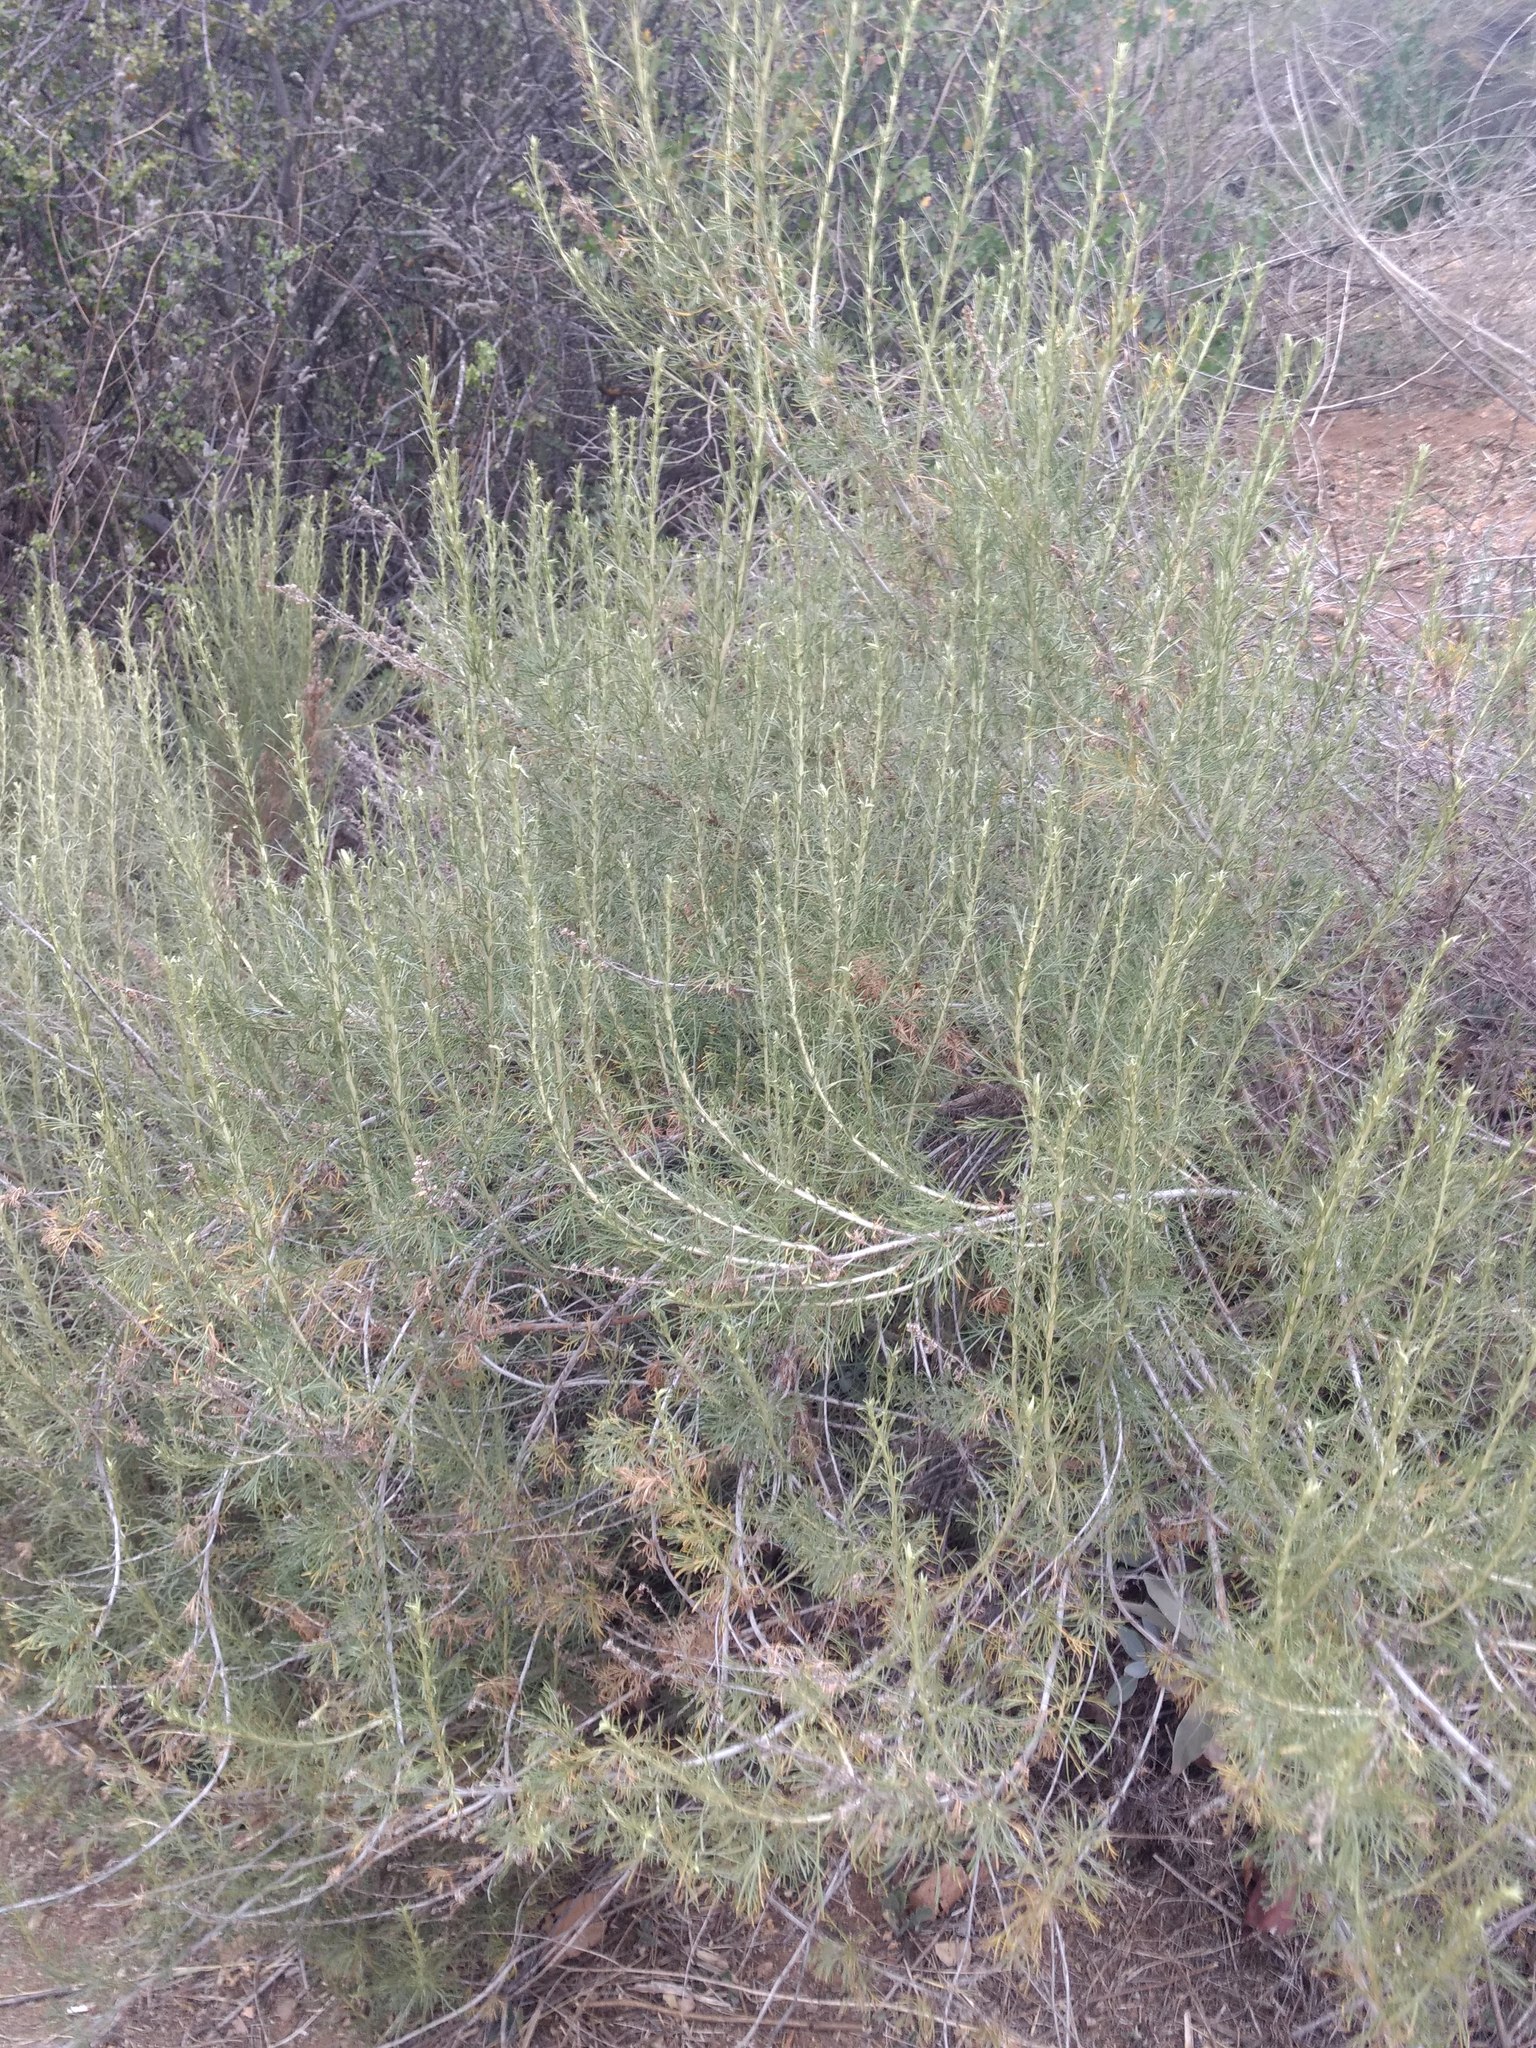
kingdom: Plantae
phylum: Tracheophyta
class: Magnoliopsida
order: Asterales
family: Asteraceae
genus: Artemisia
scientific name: Artemisia californica
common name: California sagebrush
